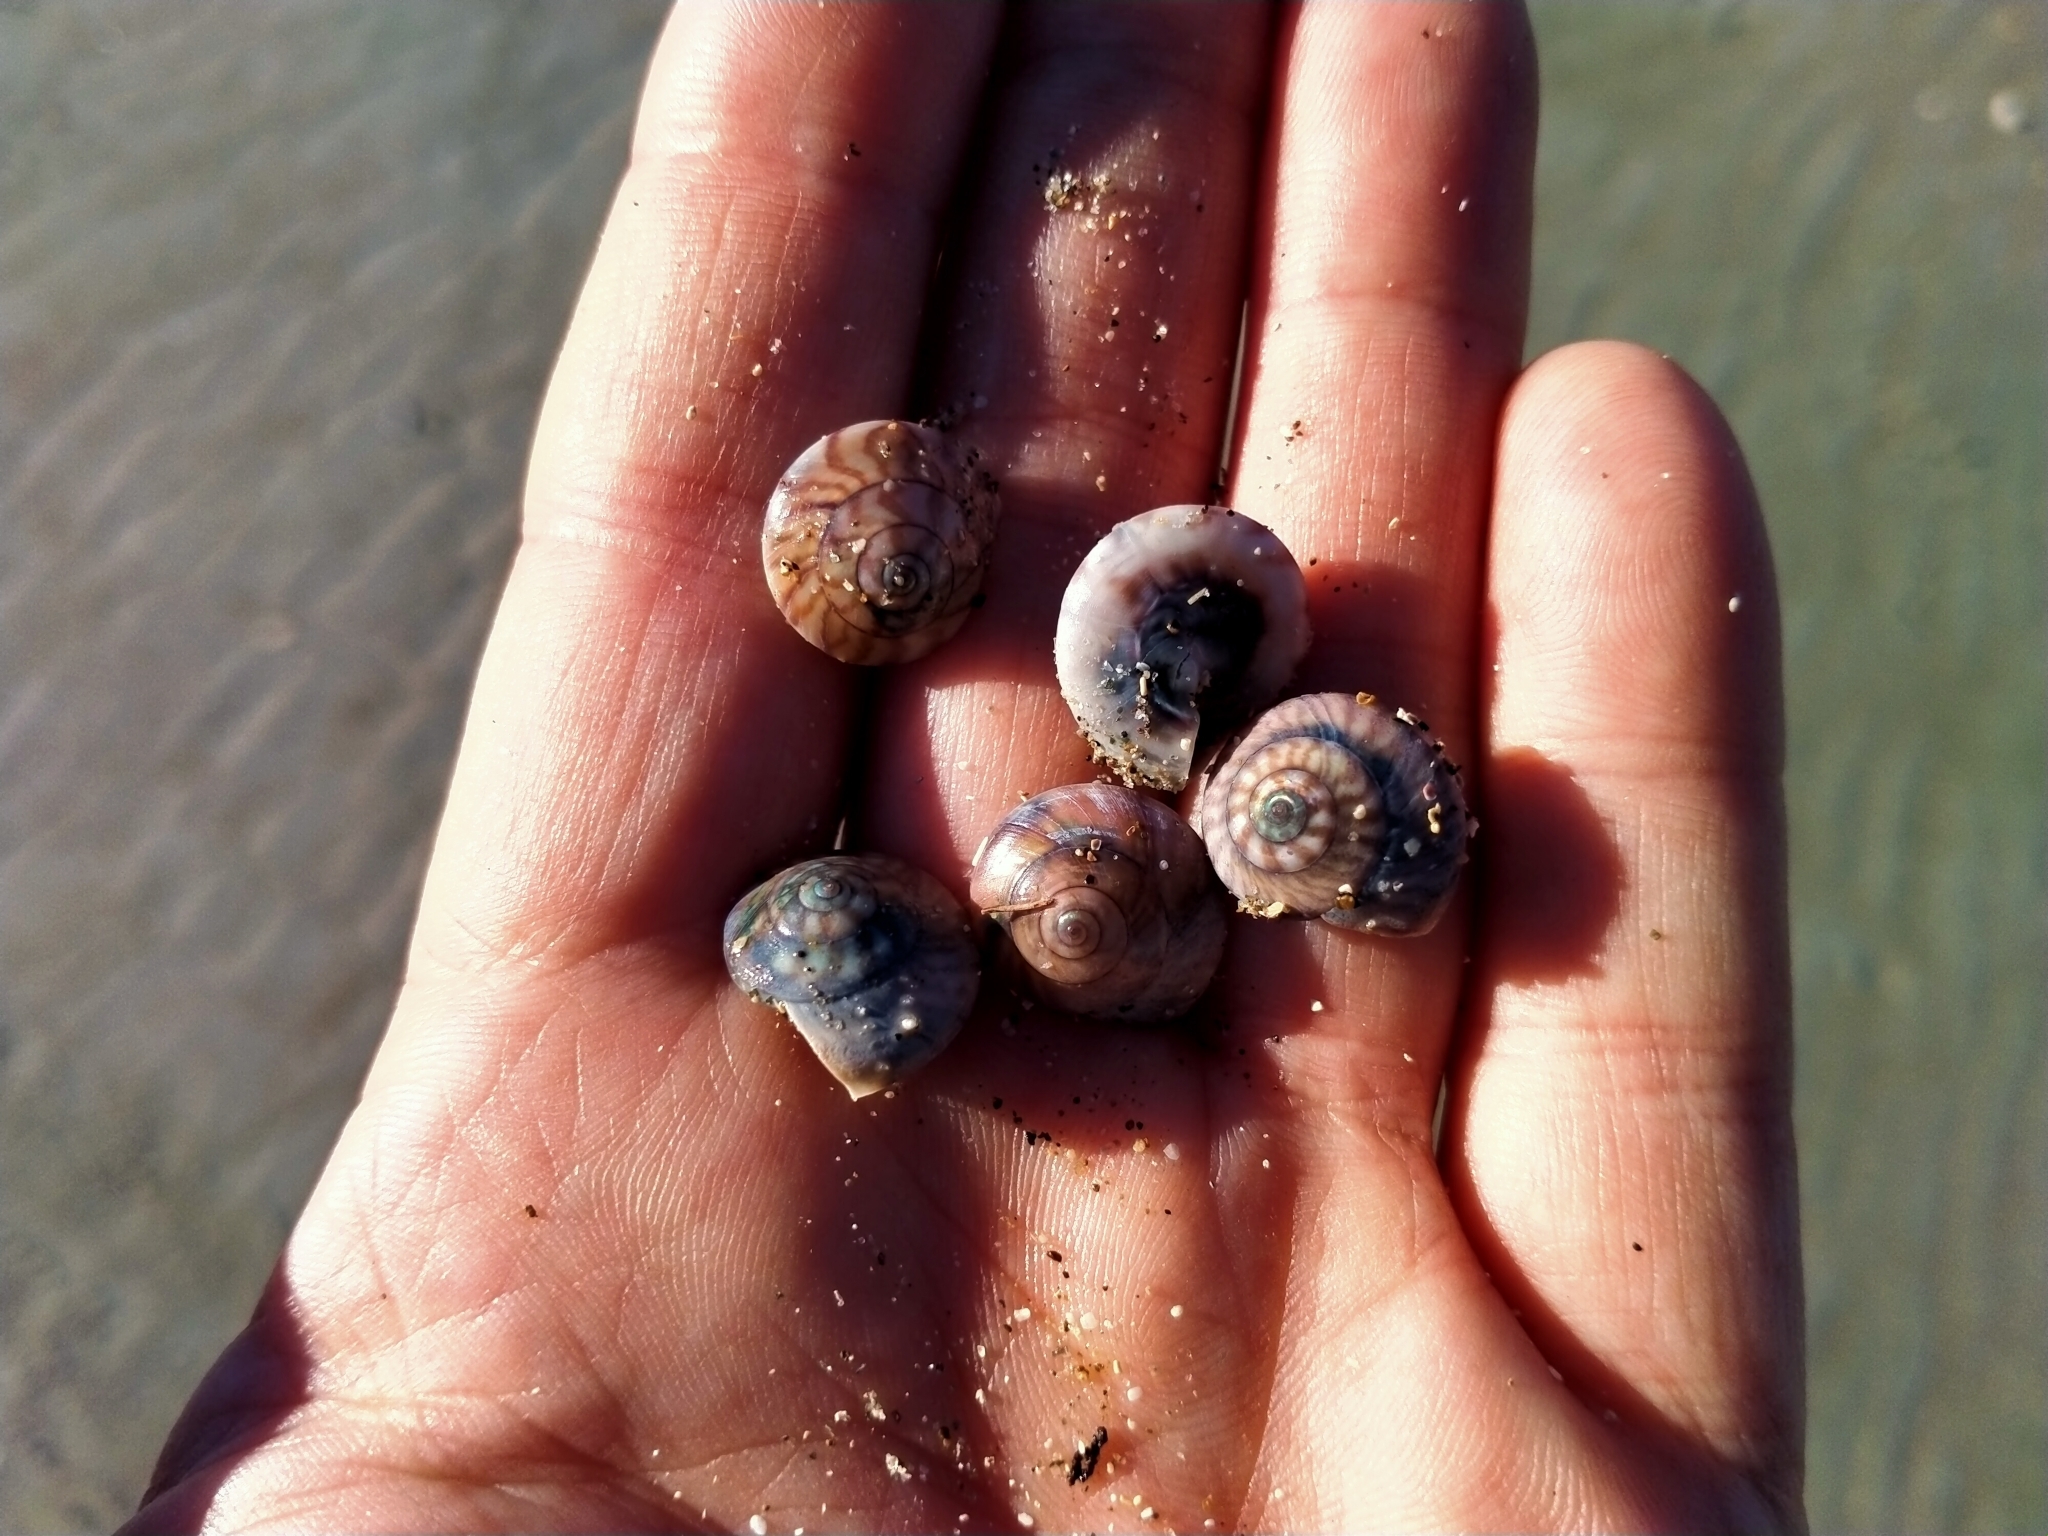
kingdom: Animalia
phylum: Mollusca
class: Gastropoda
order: Trochida
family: Trochidae
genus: Zethalia
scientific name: Zethalia zelandica
